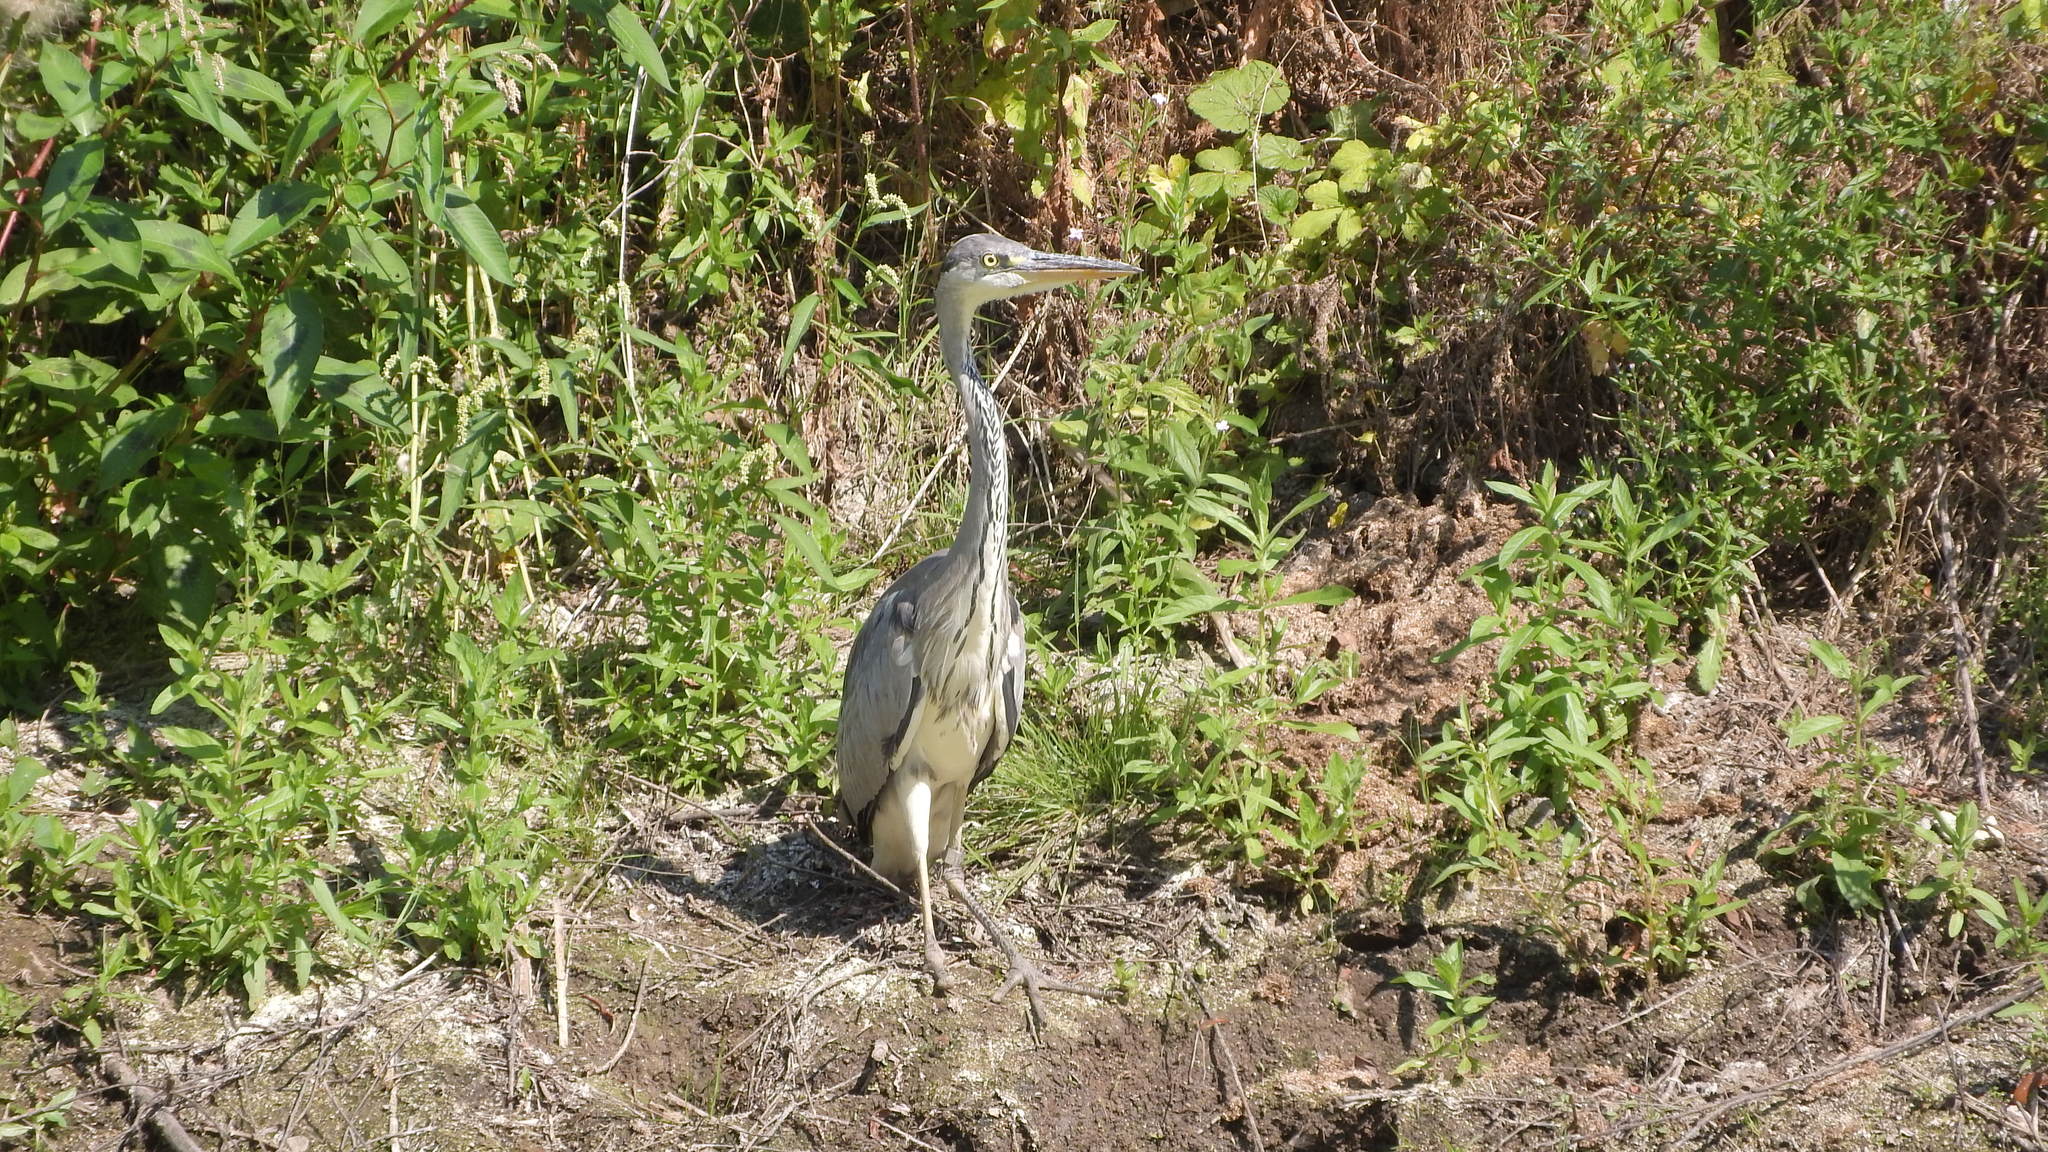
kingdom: Animalia
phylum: Chordata
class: Aves
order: Pelecaniformes
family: Ardeidae
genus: Ardea
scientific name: Ardea cinerea
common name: Grey heron
